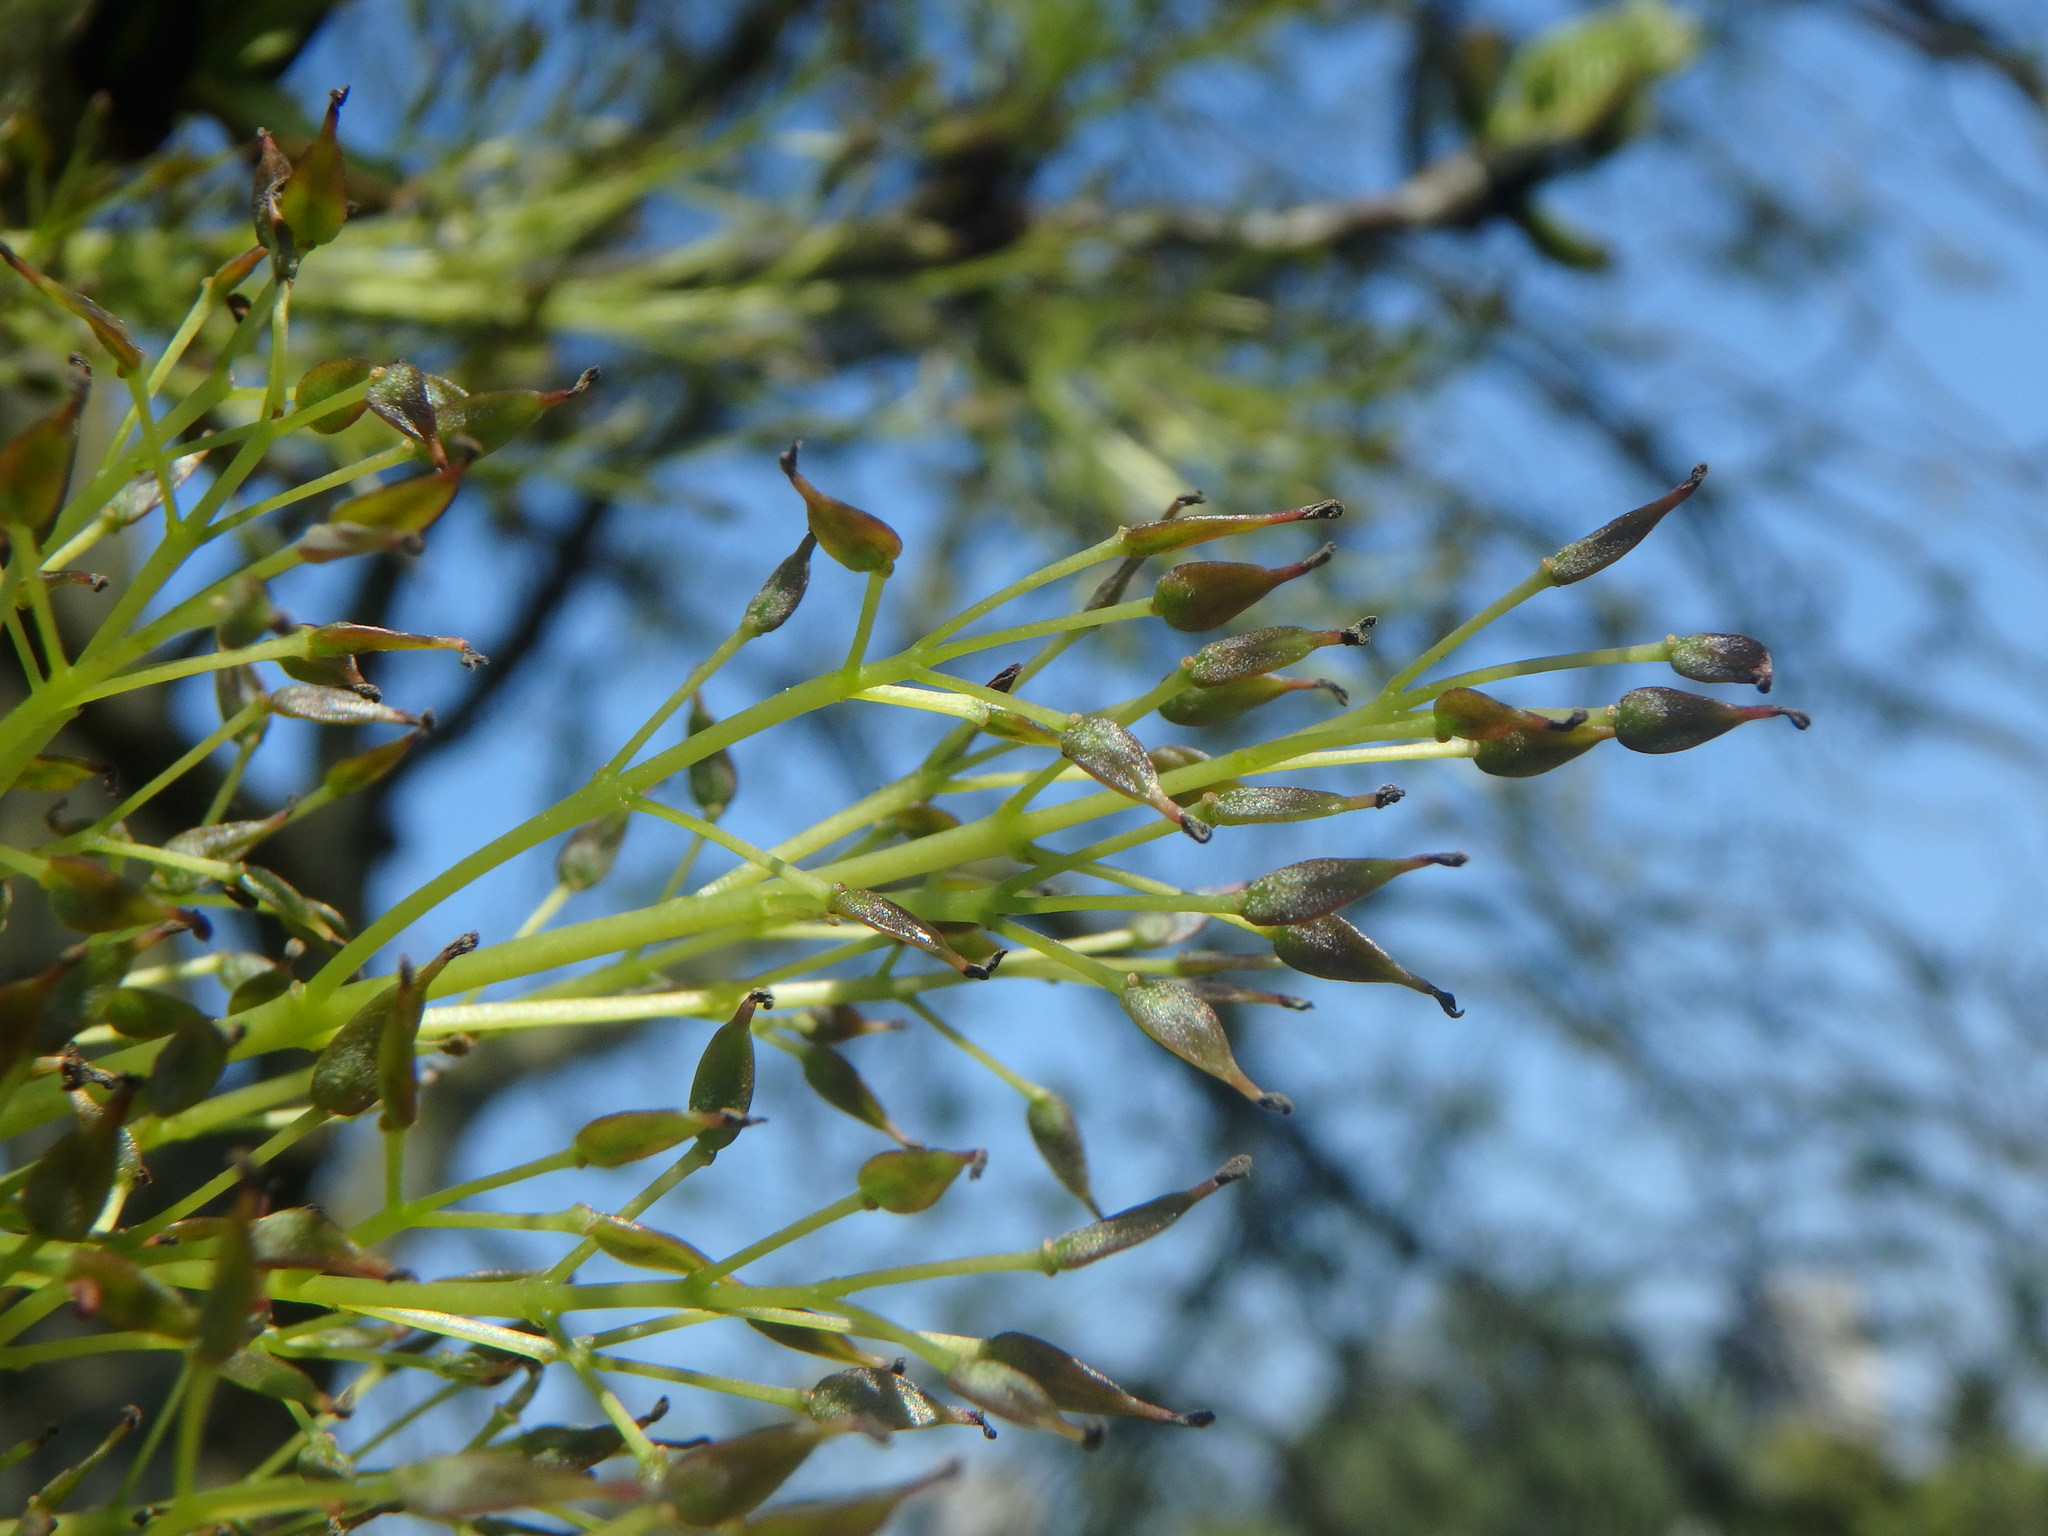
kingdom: Plantae
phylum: Tracheophyta
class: Magnoliopsida
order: Lamiales
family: Oleaceae
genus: Fraxinus
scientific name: Fraxinus excelsior
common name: European ash
